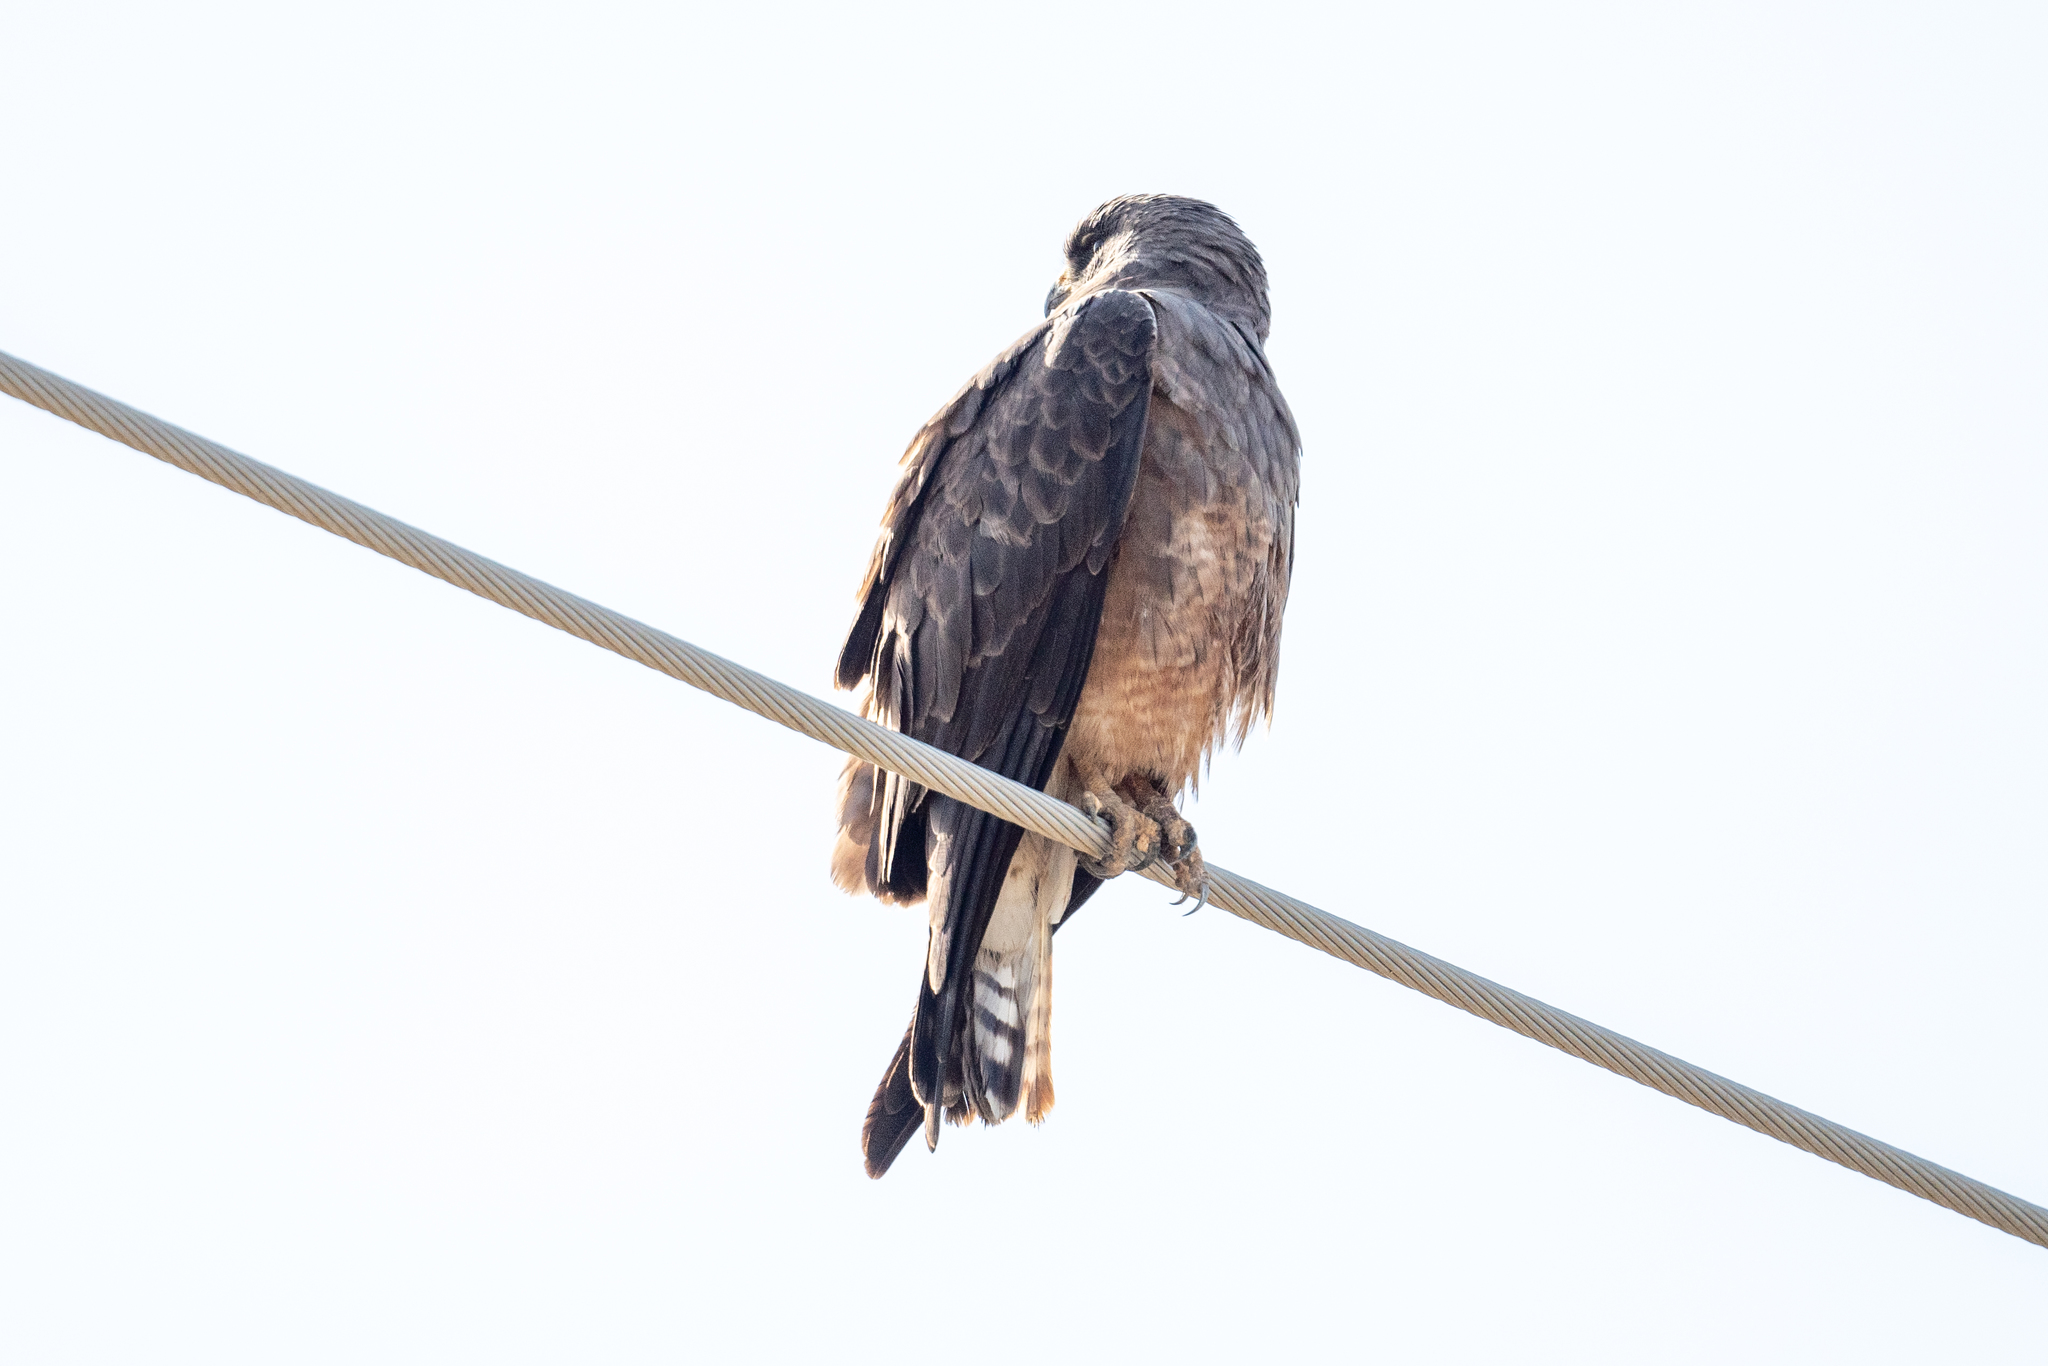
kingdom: Animalia
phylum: Chordata
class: Aves
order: Accipitriformes
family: Accipitridae
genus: Buteo
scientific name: Buteo swainsoni
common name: Swainson's hawk
